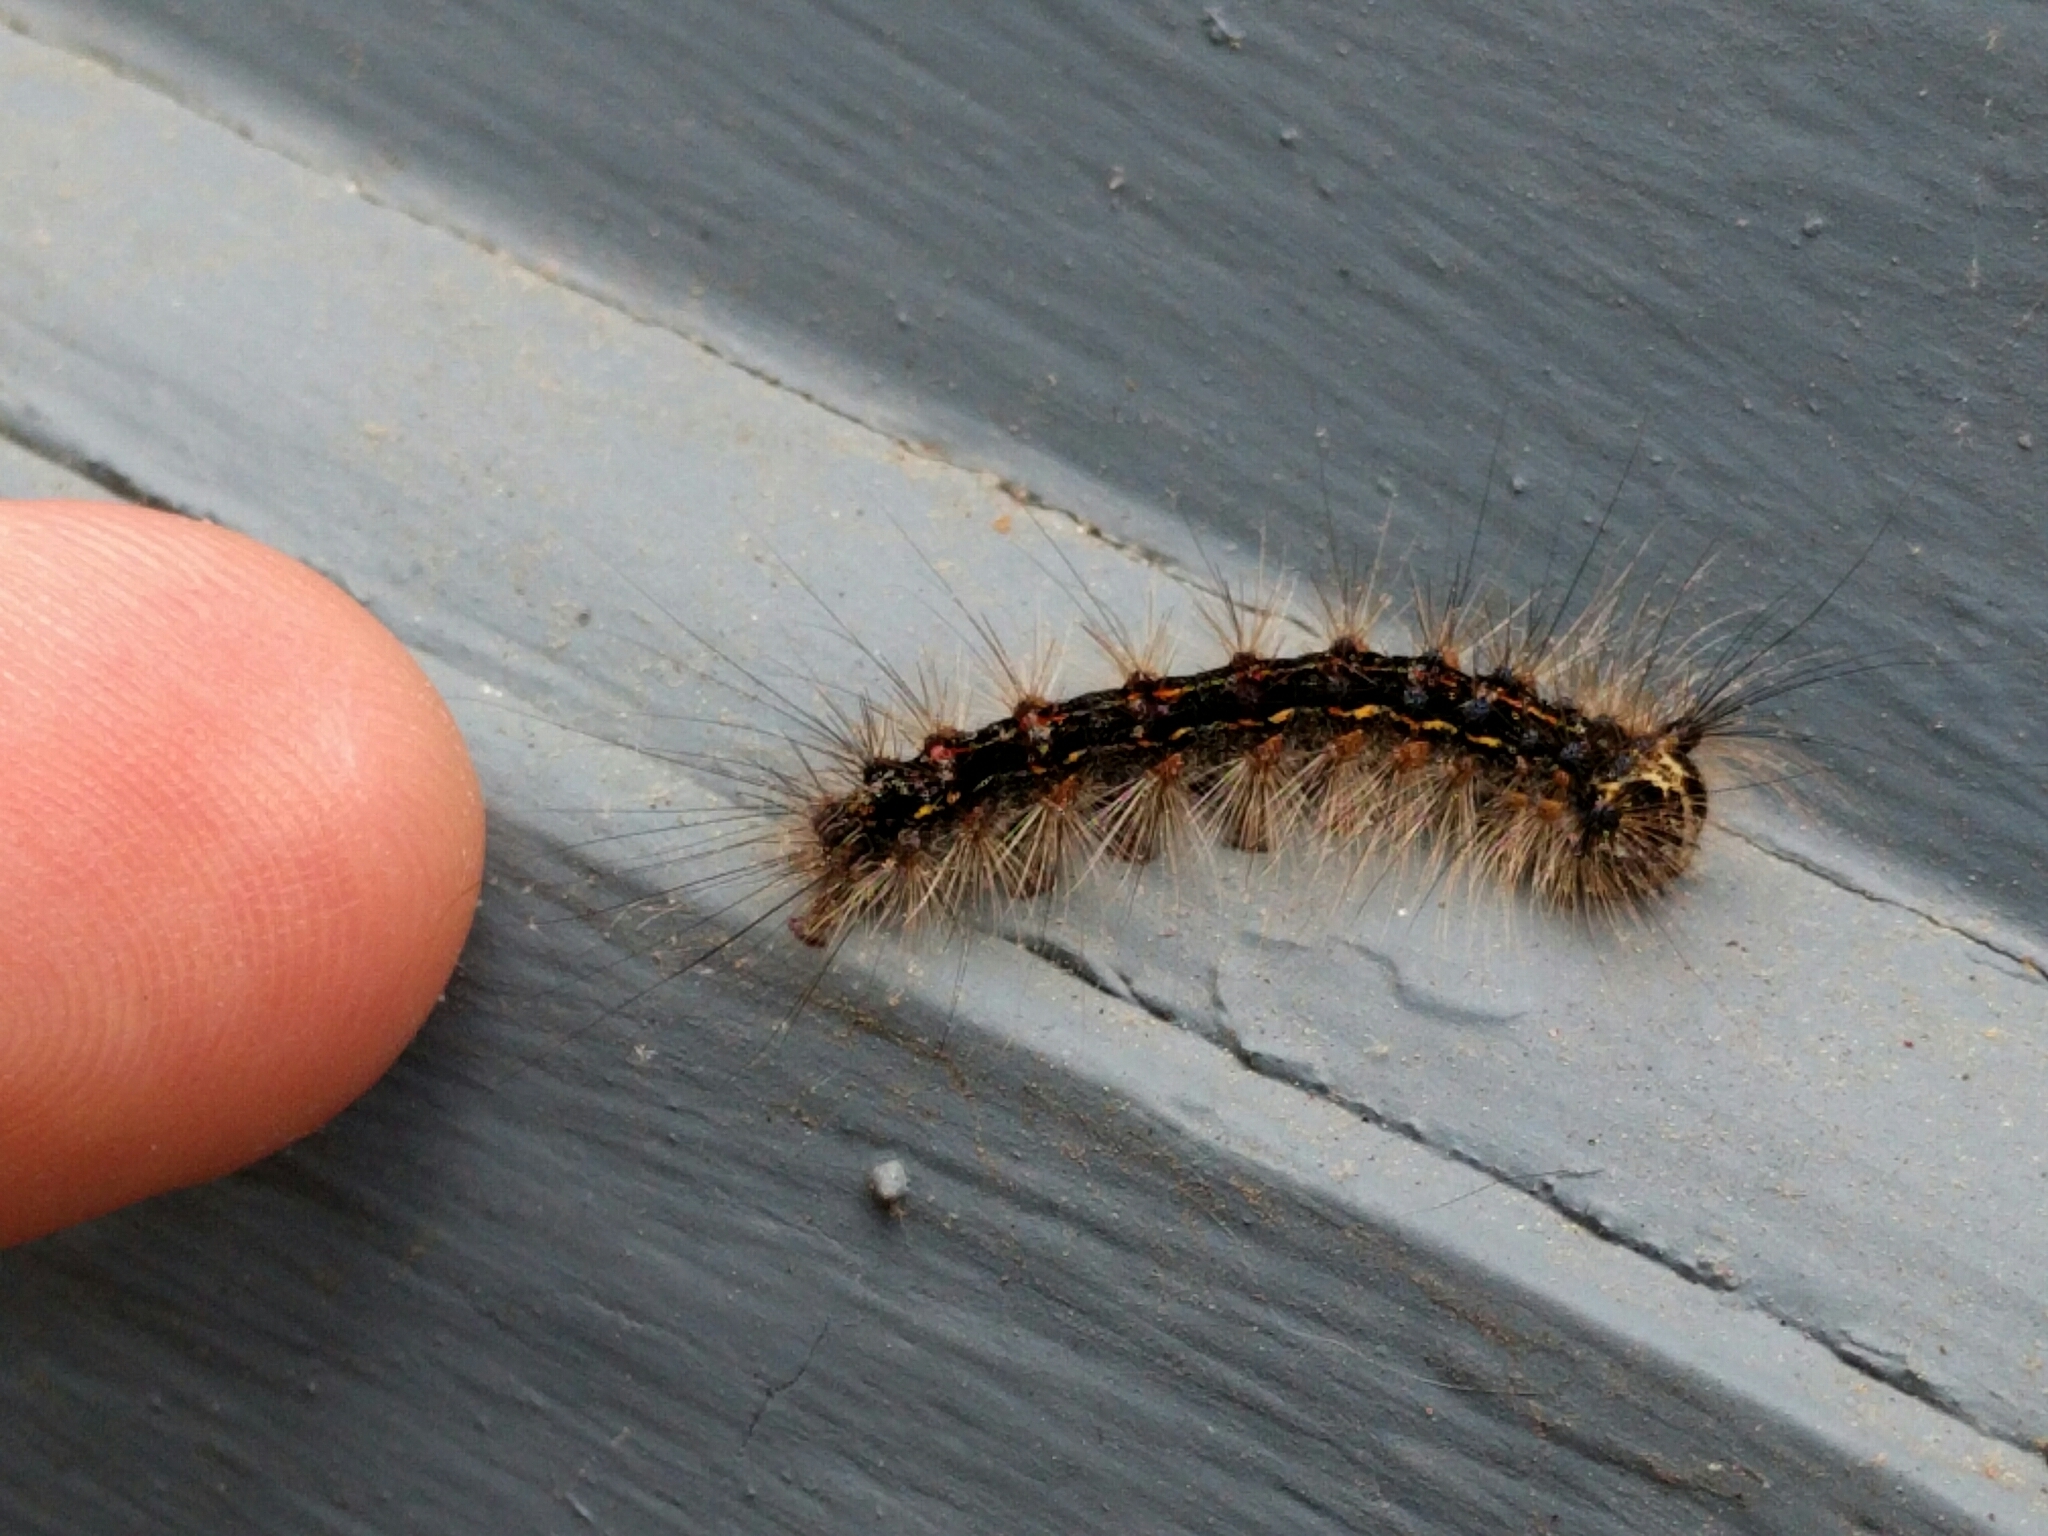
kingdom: Animalia
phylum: Arthropoda
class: Insecta
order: Lepidoptera
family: Erebidae
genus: Lymantria
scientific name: Lymantria dispar
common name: Gypsy moth
